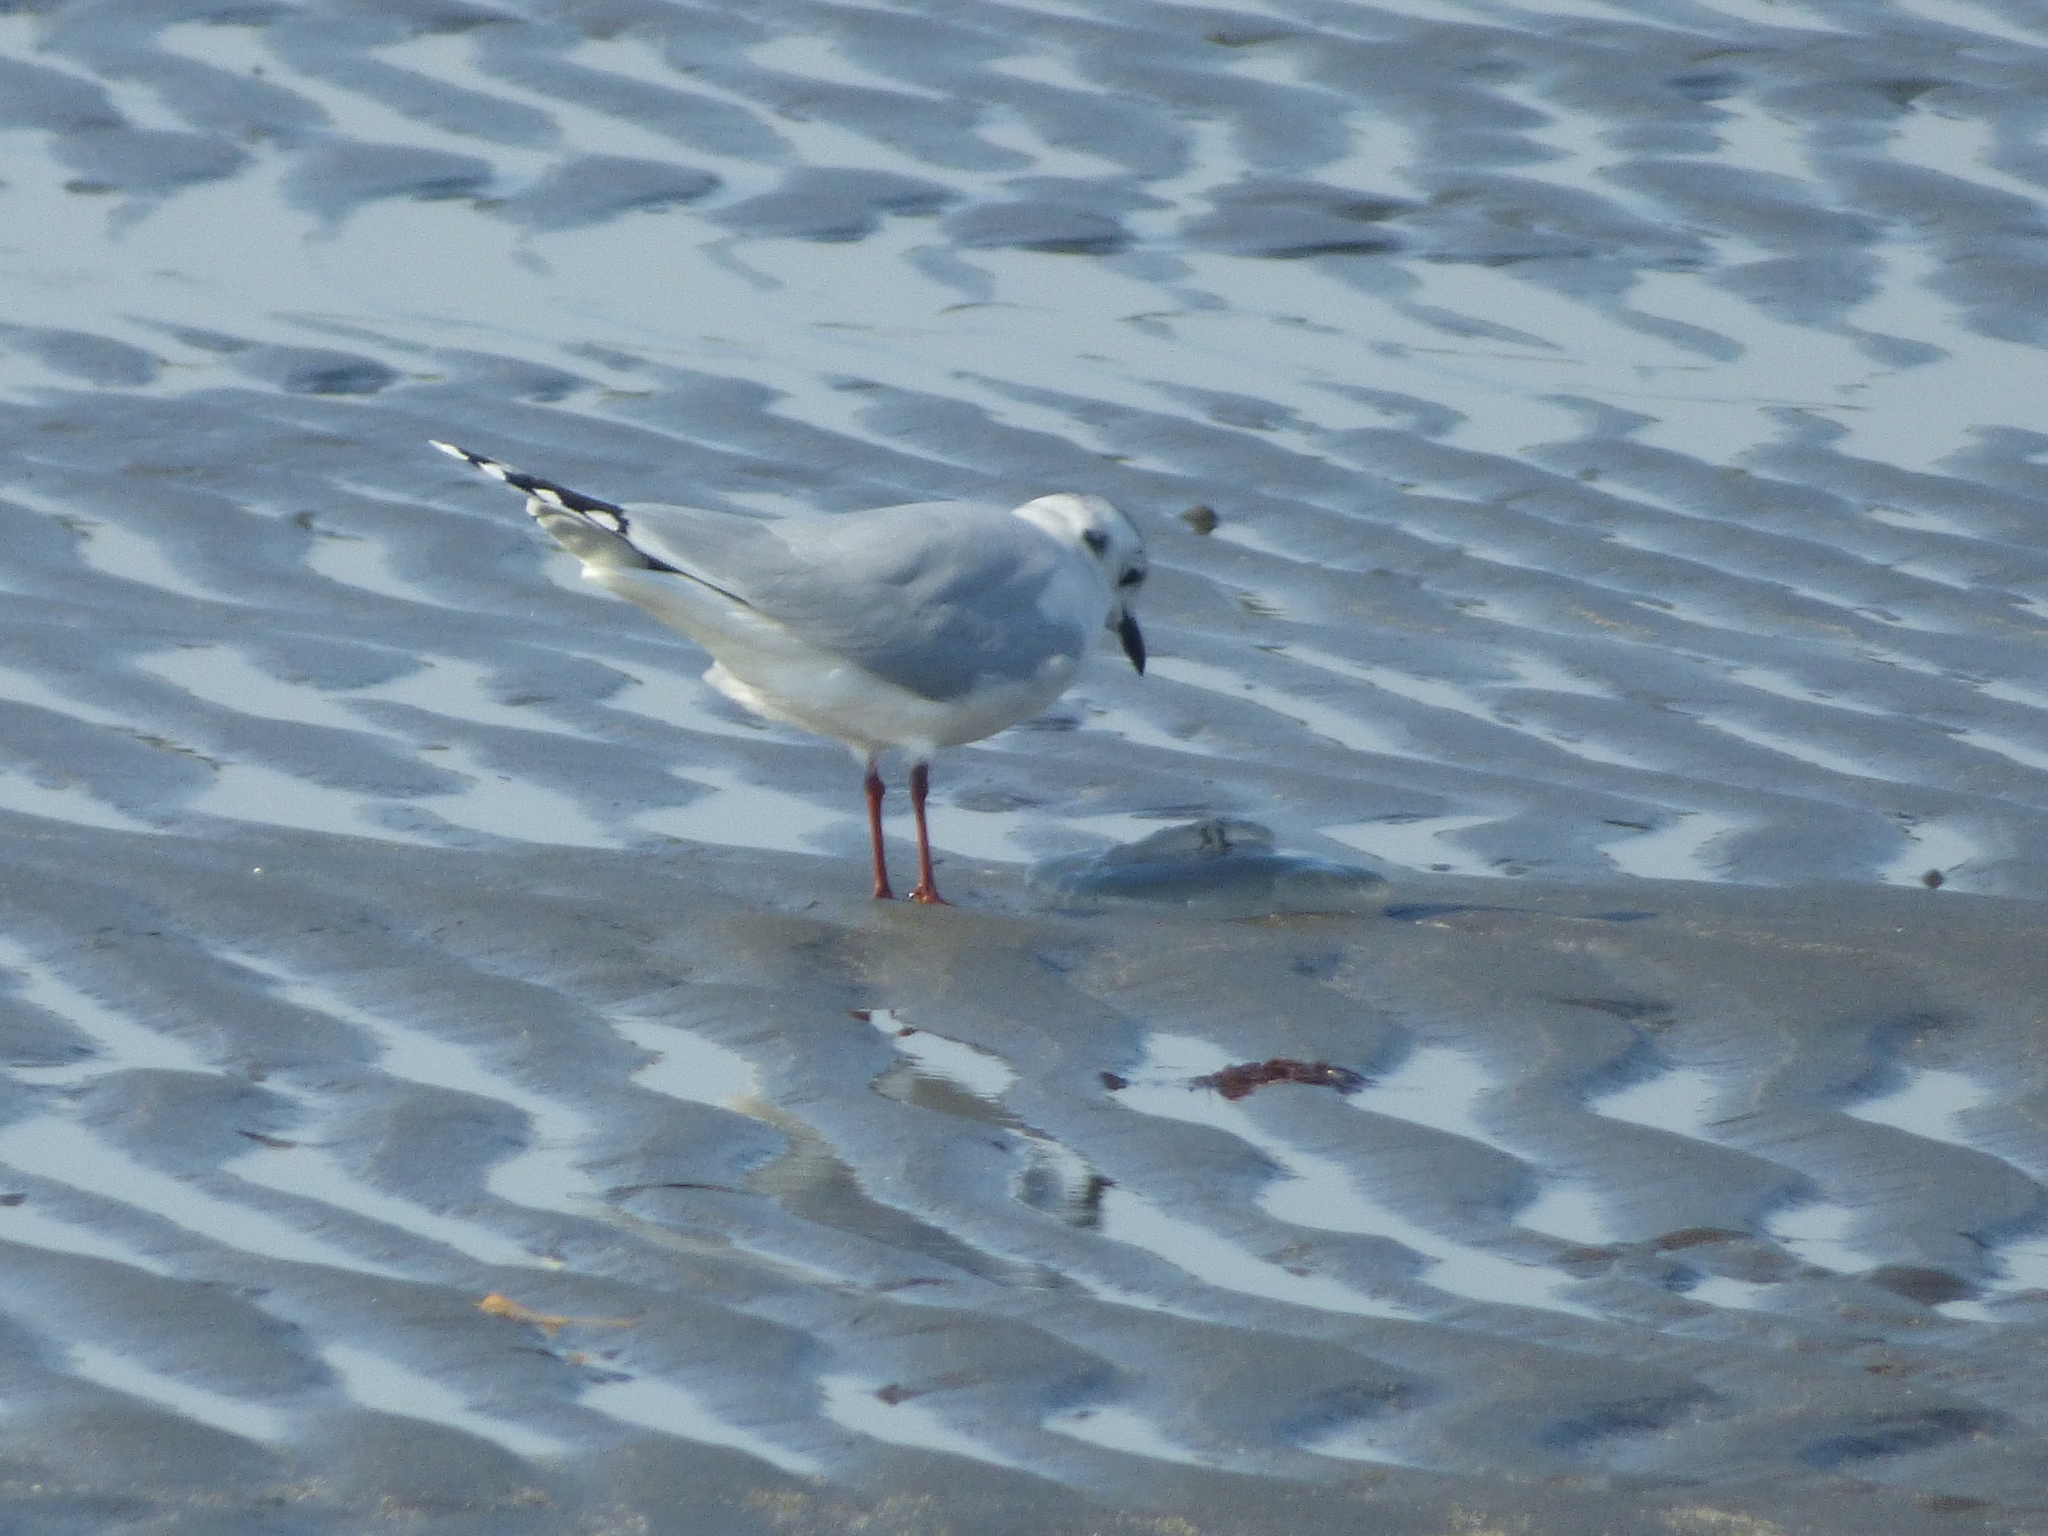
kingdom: Animalia
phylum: Chordata
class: Aves
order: Charadriiformes
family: Laridae
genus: Chroicocephalus
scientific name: Chroicocephalus saundersi
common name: Saunders's gull
